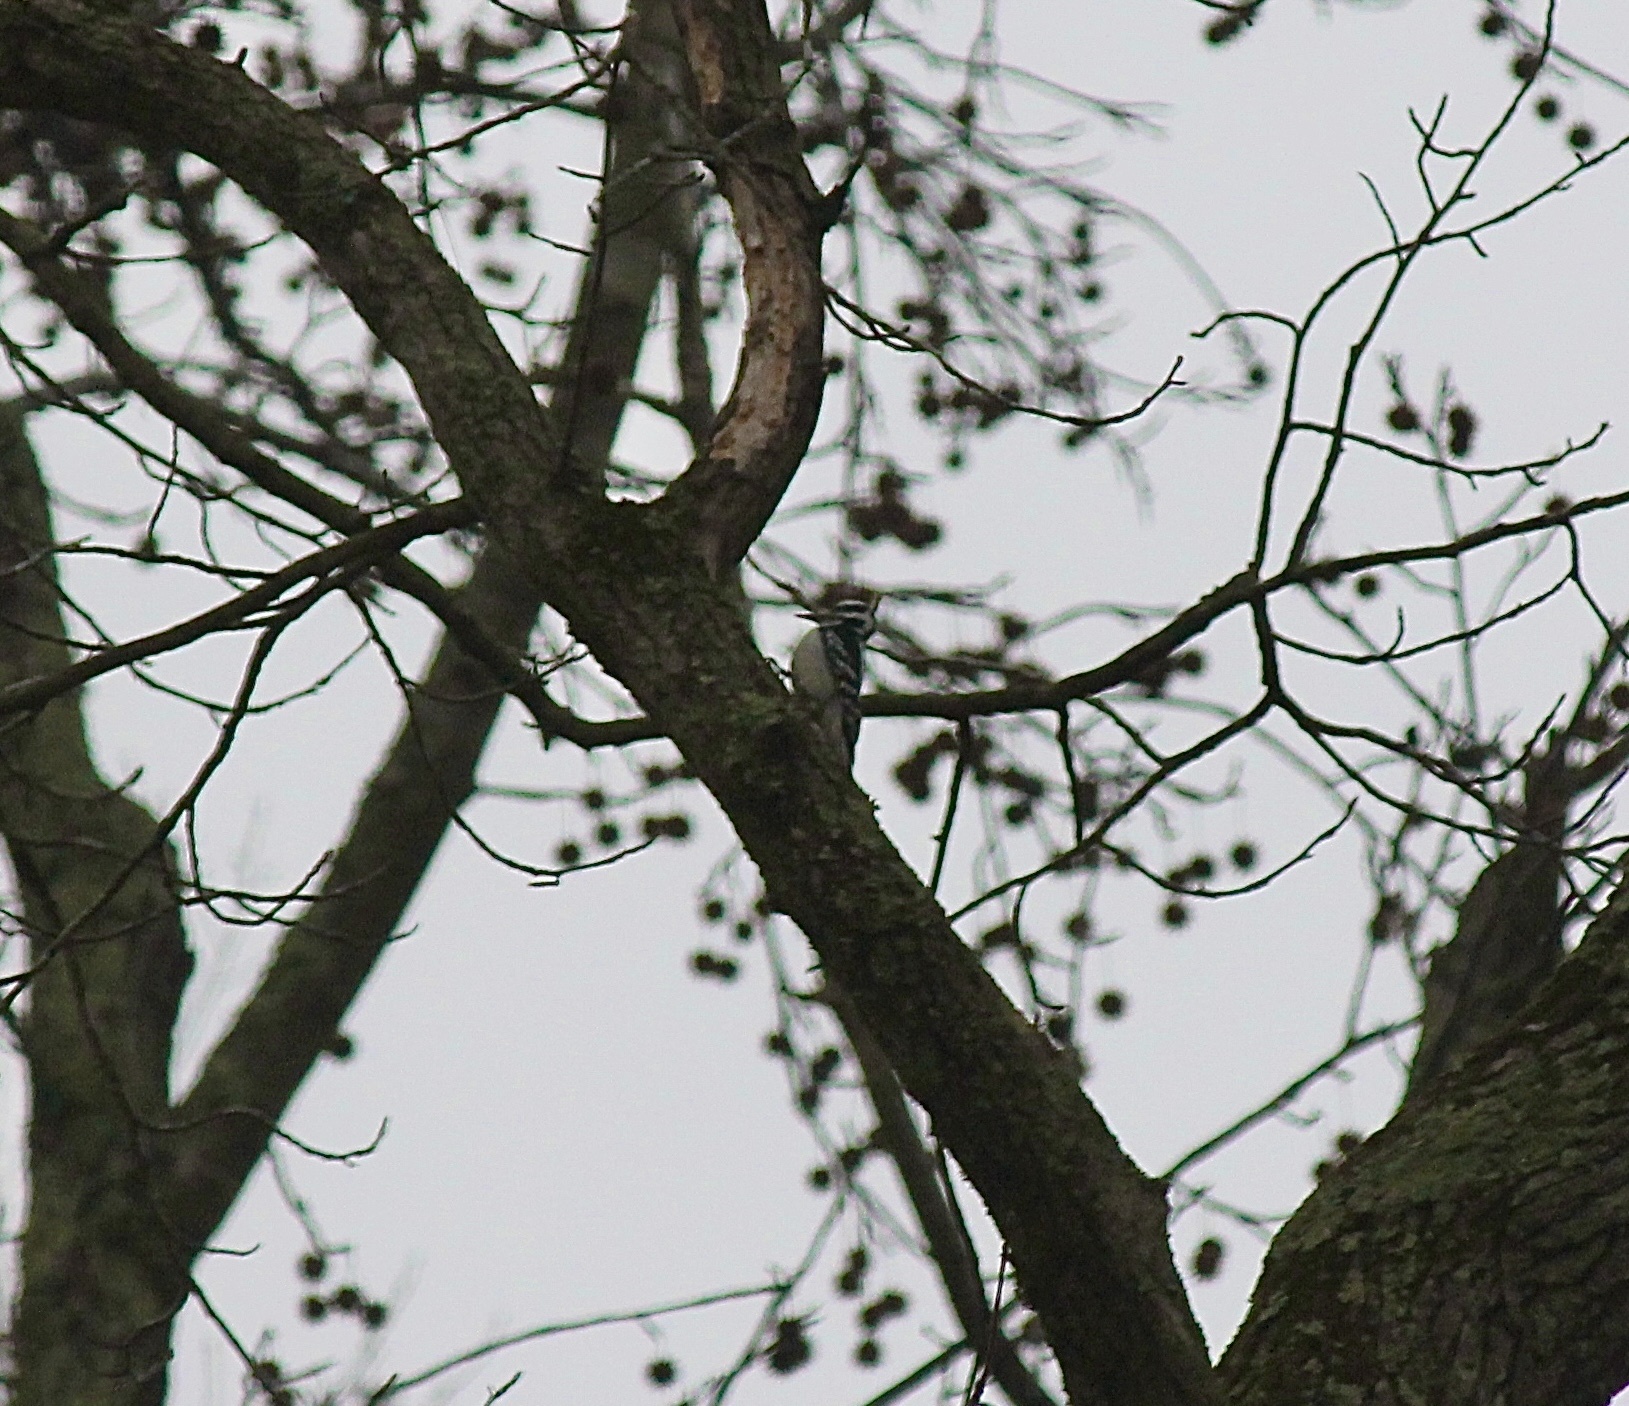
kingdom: Animalia
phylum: Chordata
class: Aves
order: Piciformes
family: Picidae
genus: Dryobates
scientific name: Dryobates pubescens
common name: Downy woodpecker
